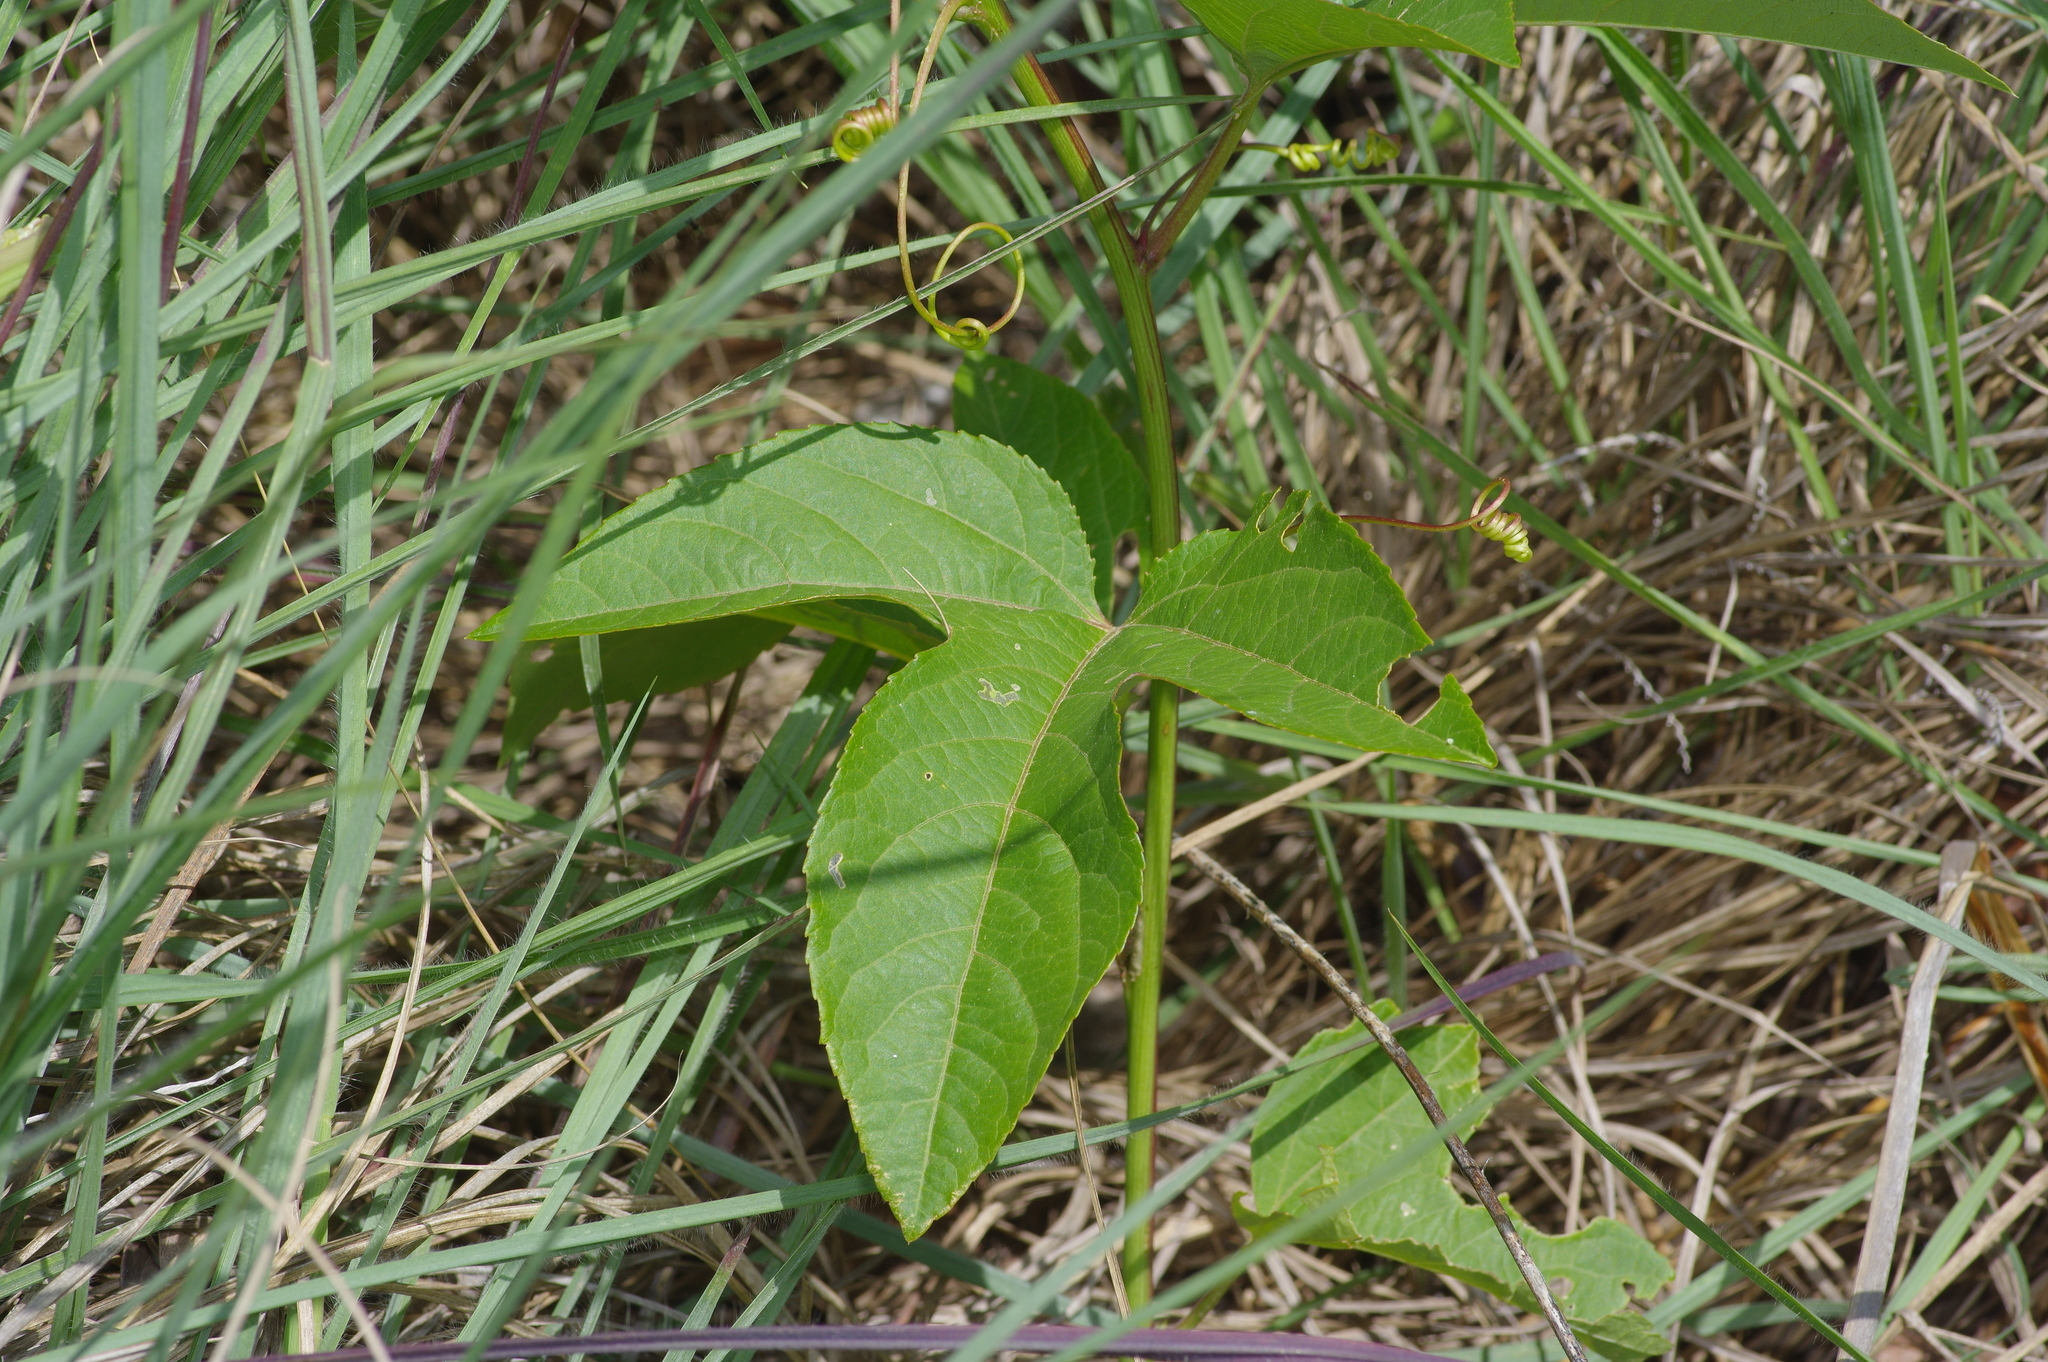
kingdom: Plantae
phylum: Tracheophyta
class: Magnoliopsida
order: Malpighiales
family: Passifloraceae
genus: Passiflora
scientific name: Passiflora incarnata
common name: Apricot-vine
